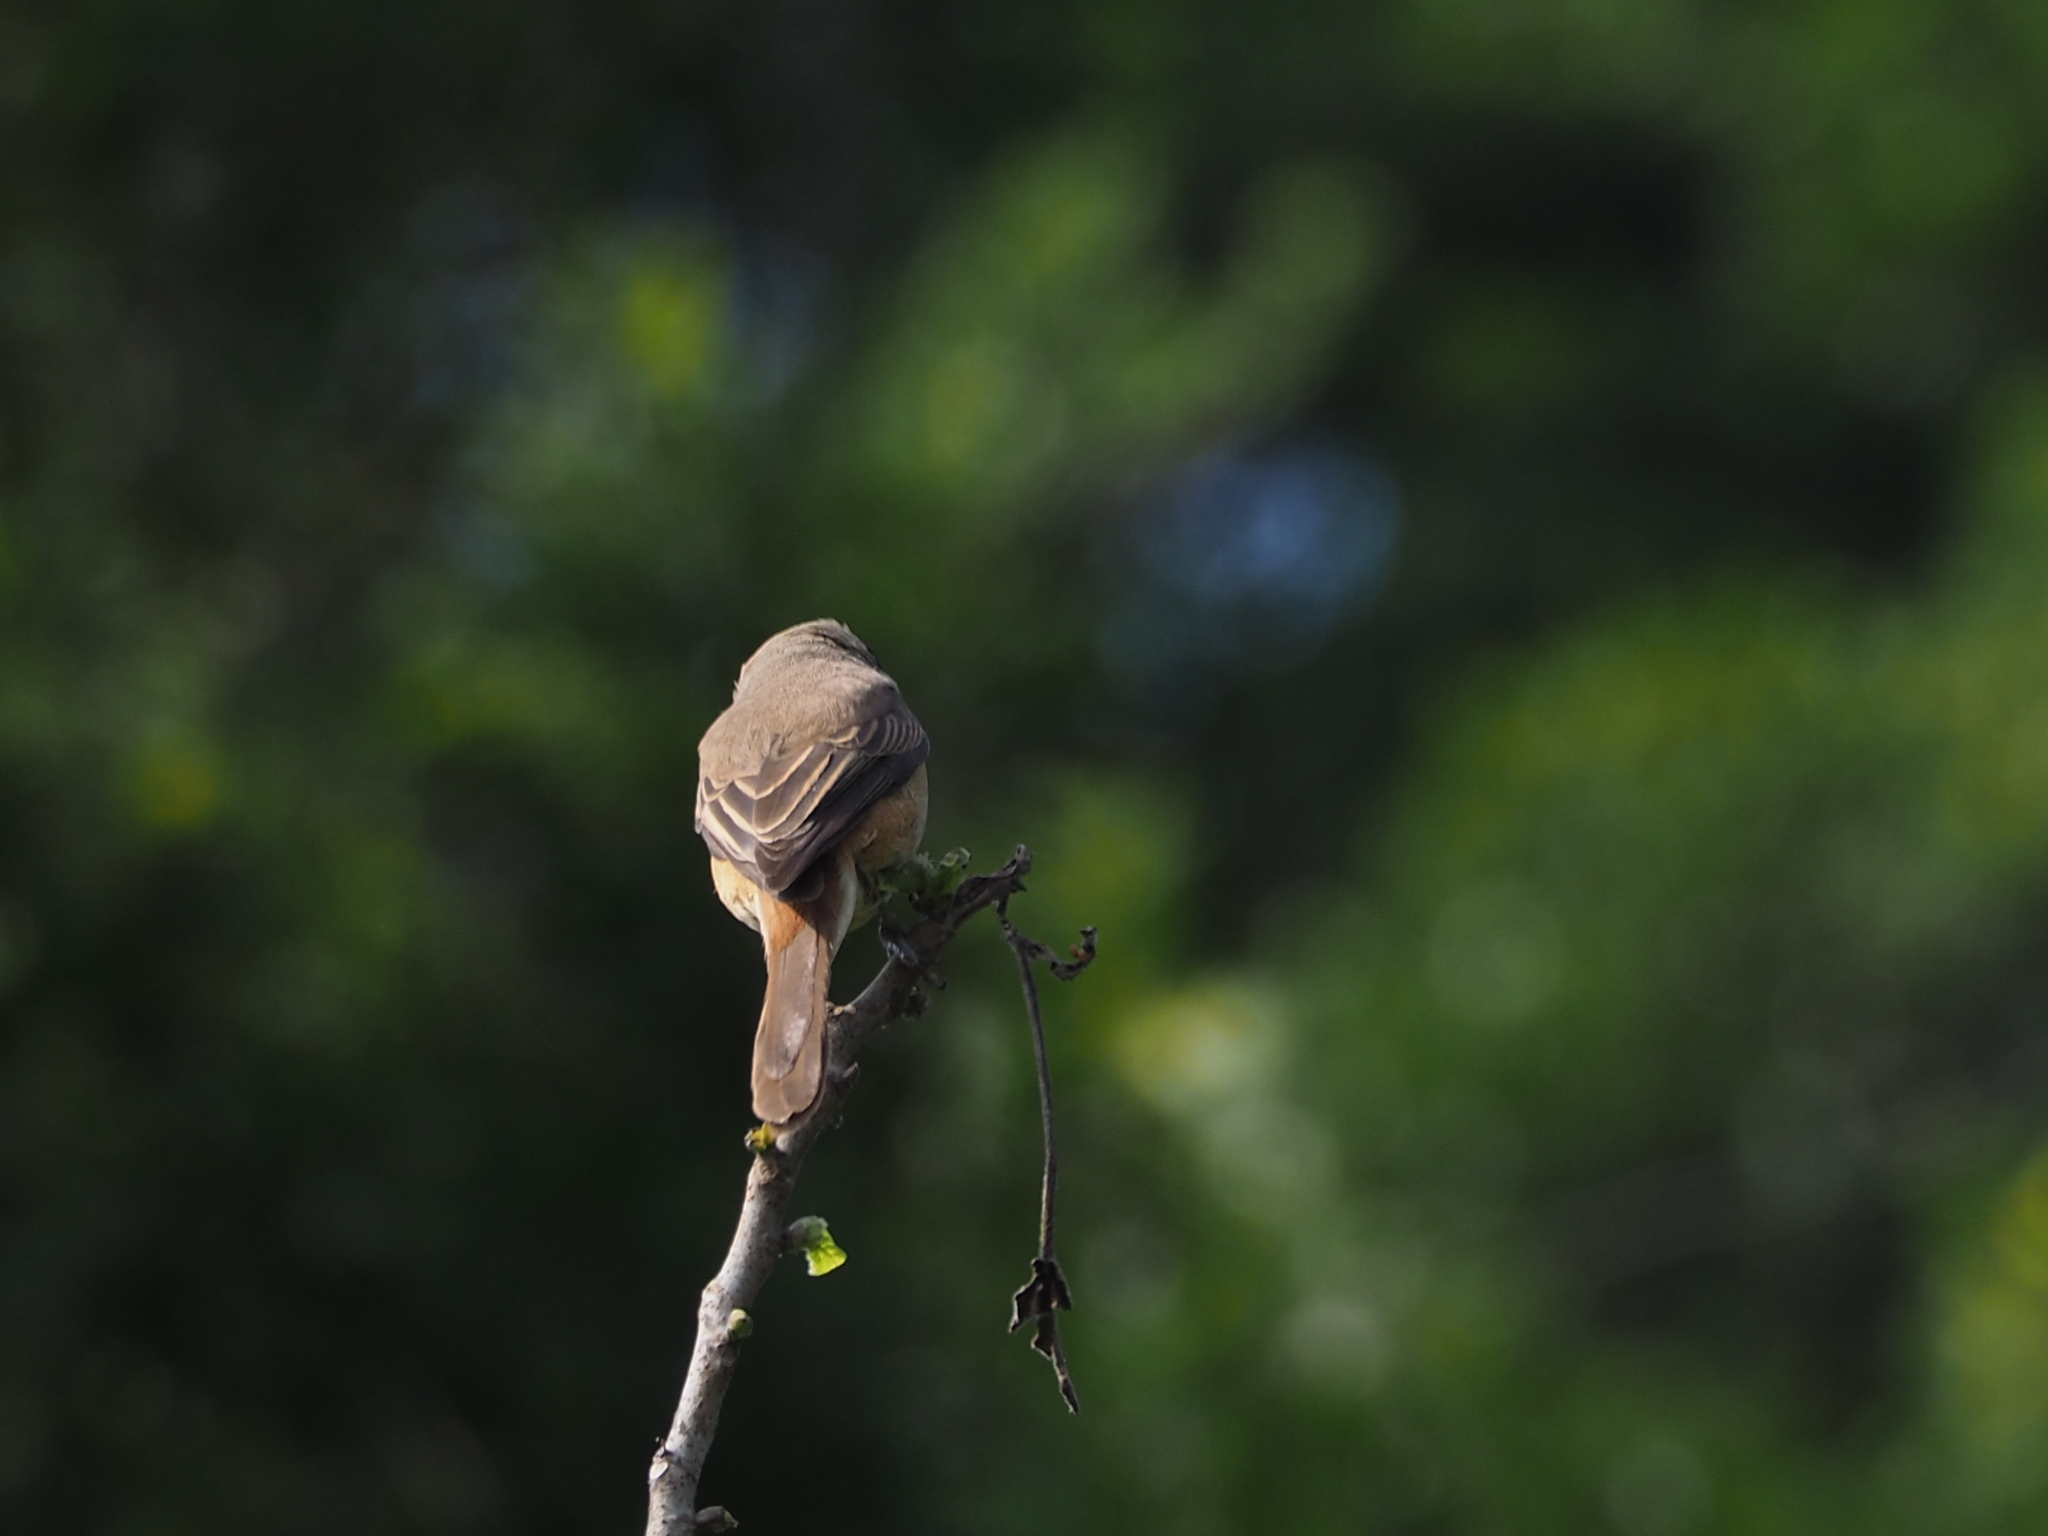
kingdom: Animalia
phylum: Chordata
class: Aves
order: Passeriformes
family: Laniidae
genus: Lanius
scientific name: Lanius cristatus
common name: Brown shrike
